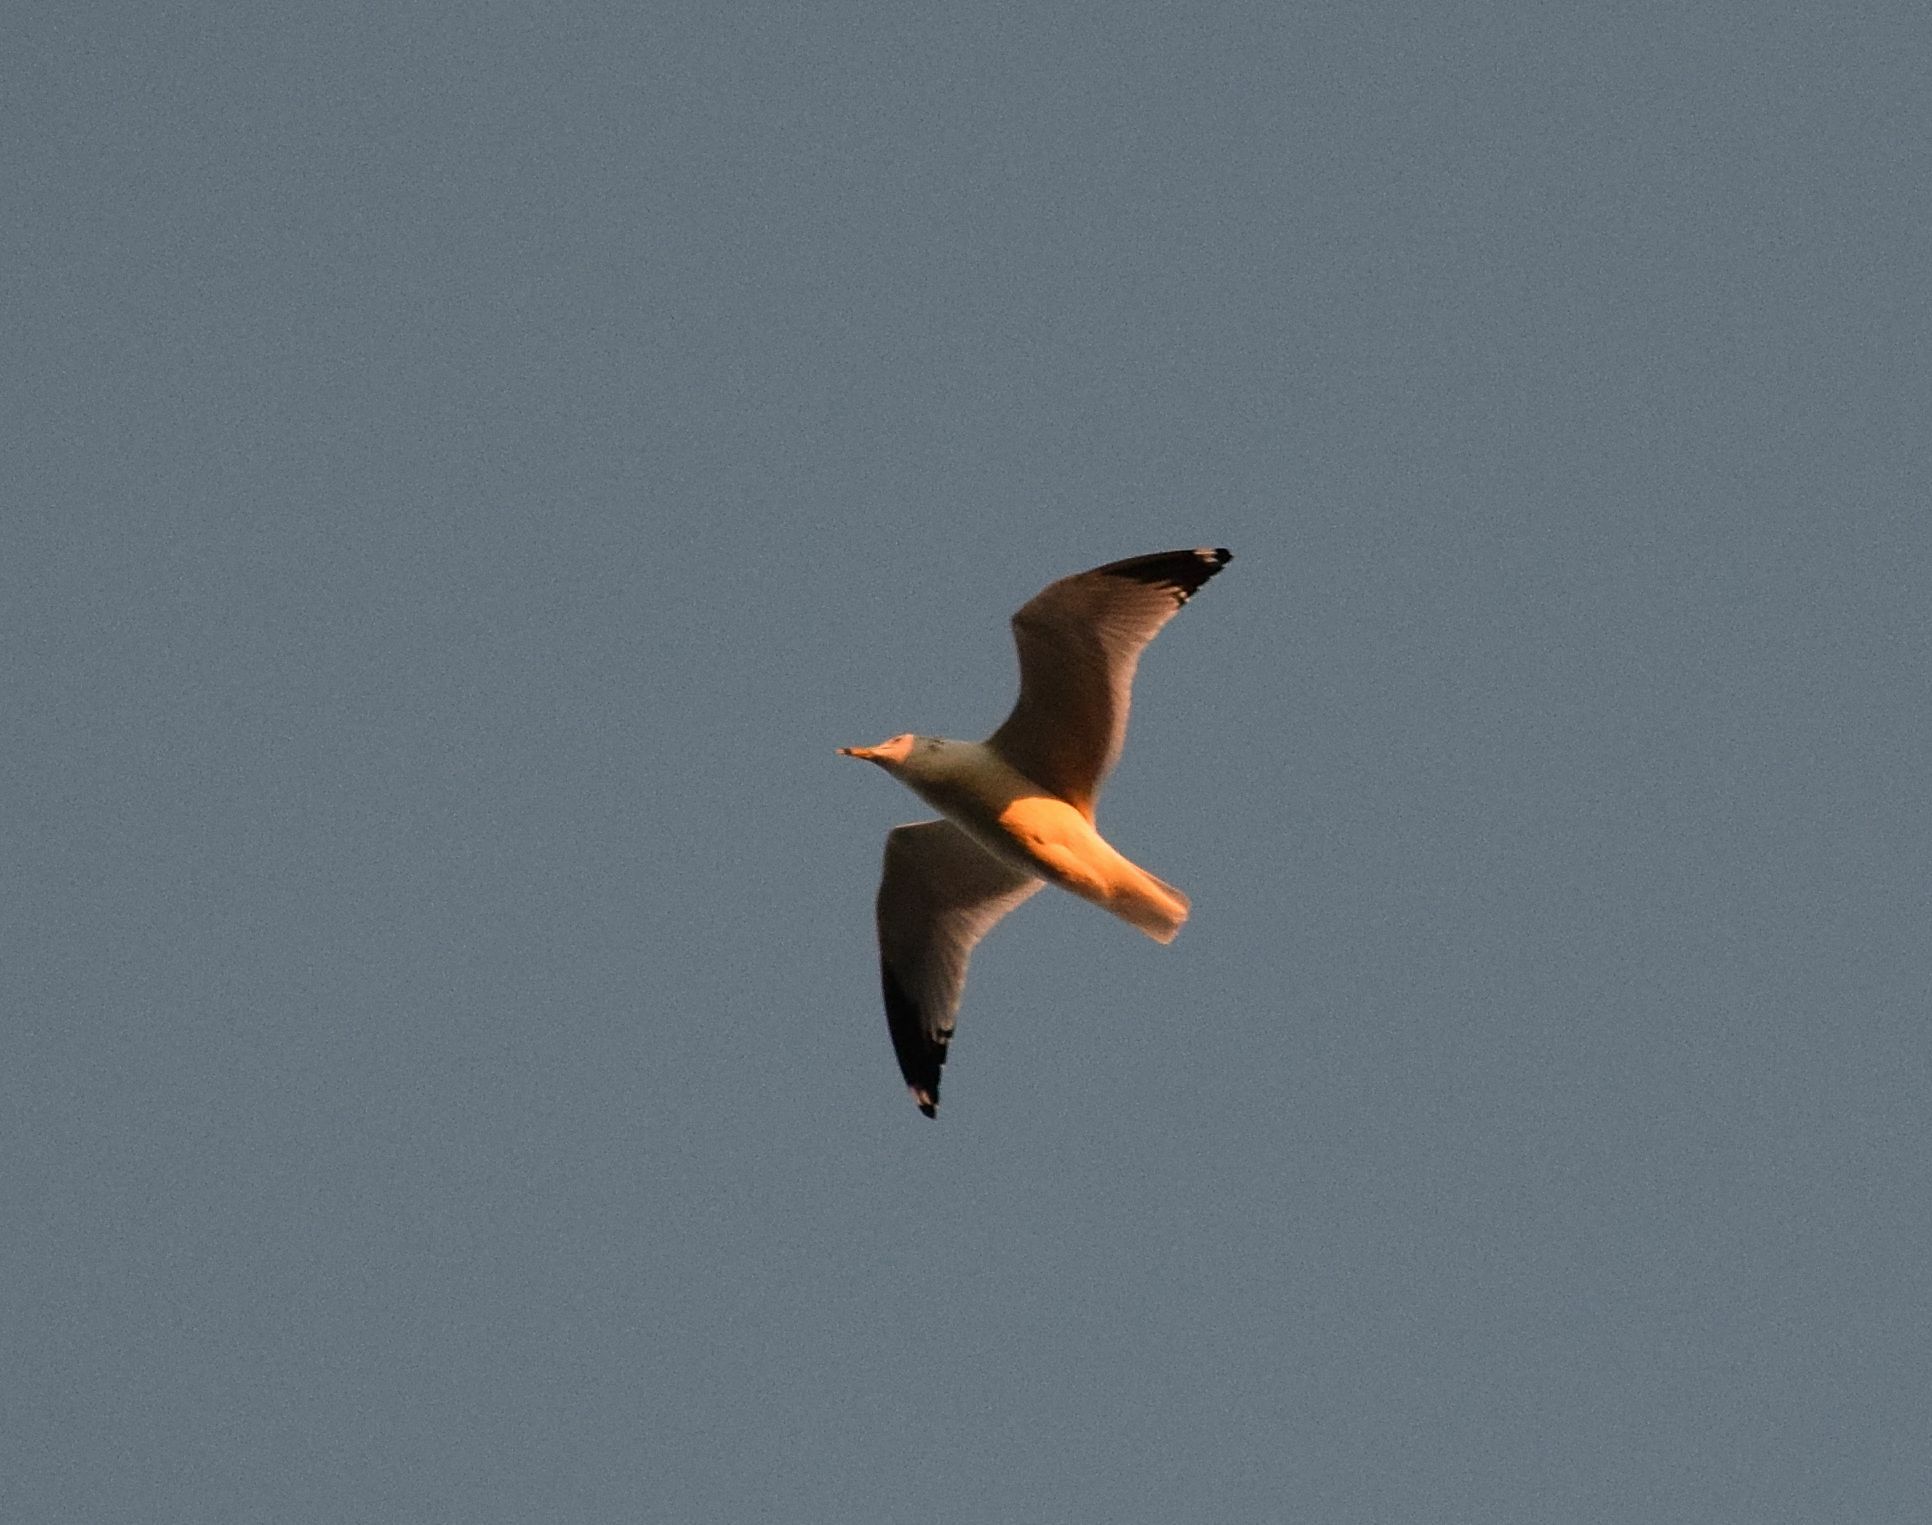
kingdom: Animalia
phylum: Chordata
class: Aves
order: Charadriiformes
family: Laridae
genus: Larus
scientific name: Larus delawarensis
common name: Ring-billed gull
